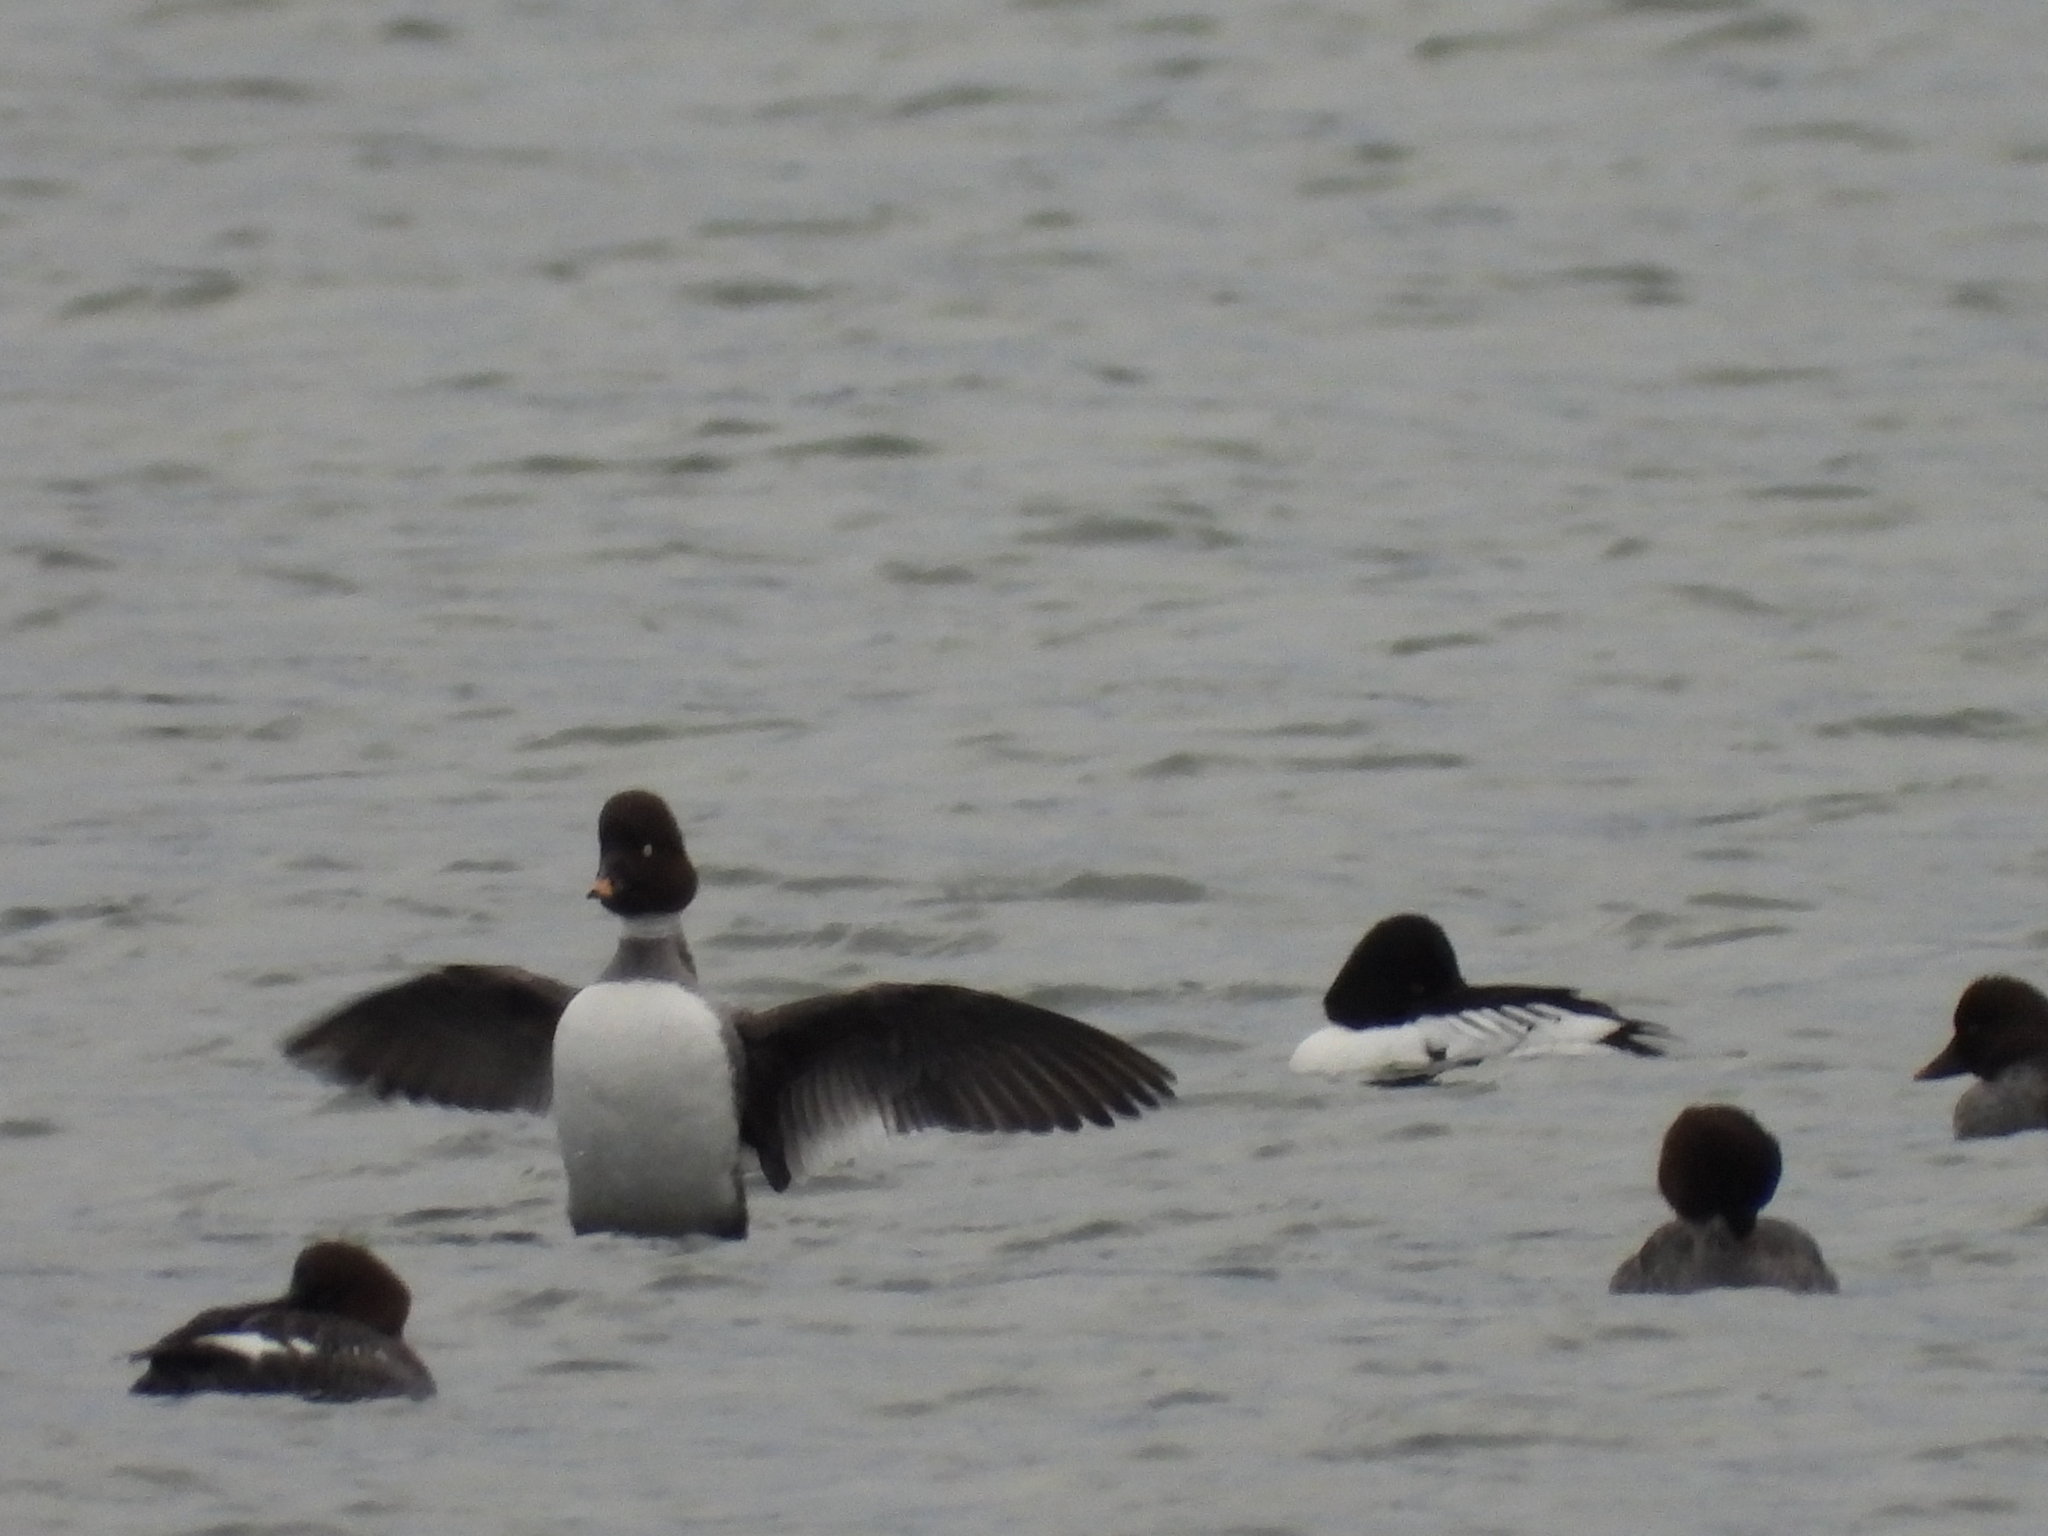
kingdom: Animalia
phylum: Chordata
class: Aves
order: Anseriformes
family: Anatidae
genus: Bucephala
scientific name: Bucephala clangula
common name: Common goldeneye
